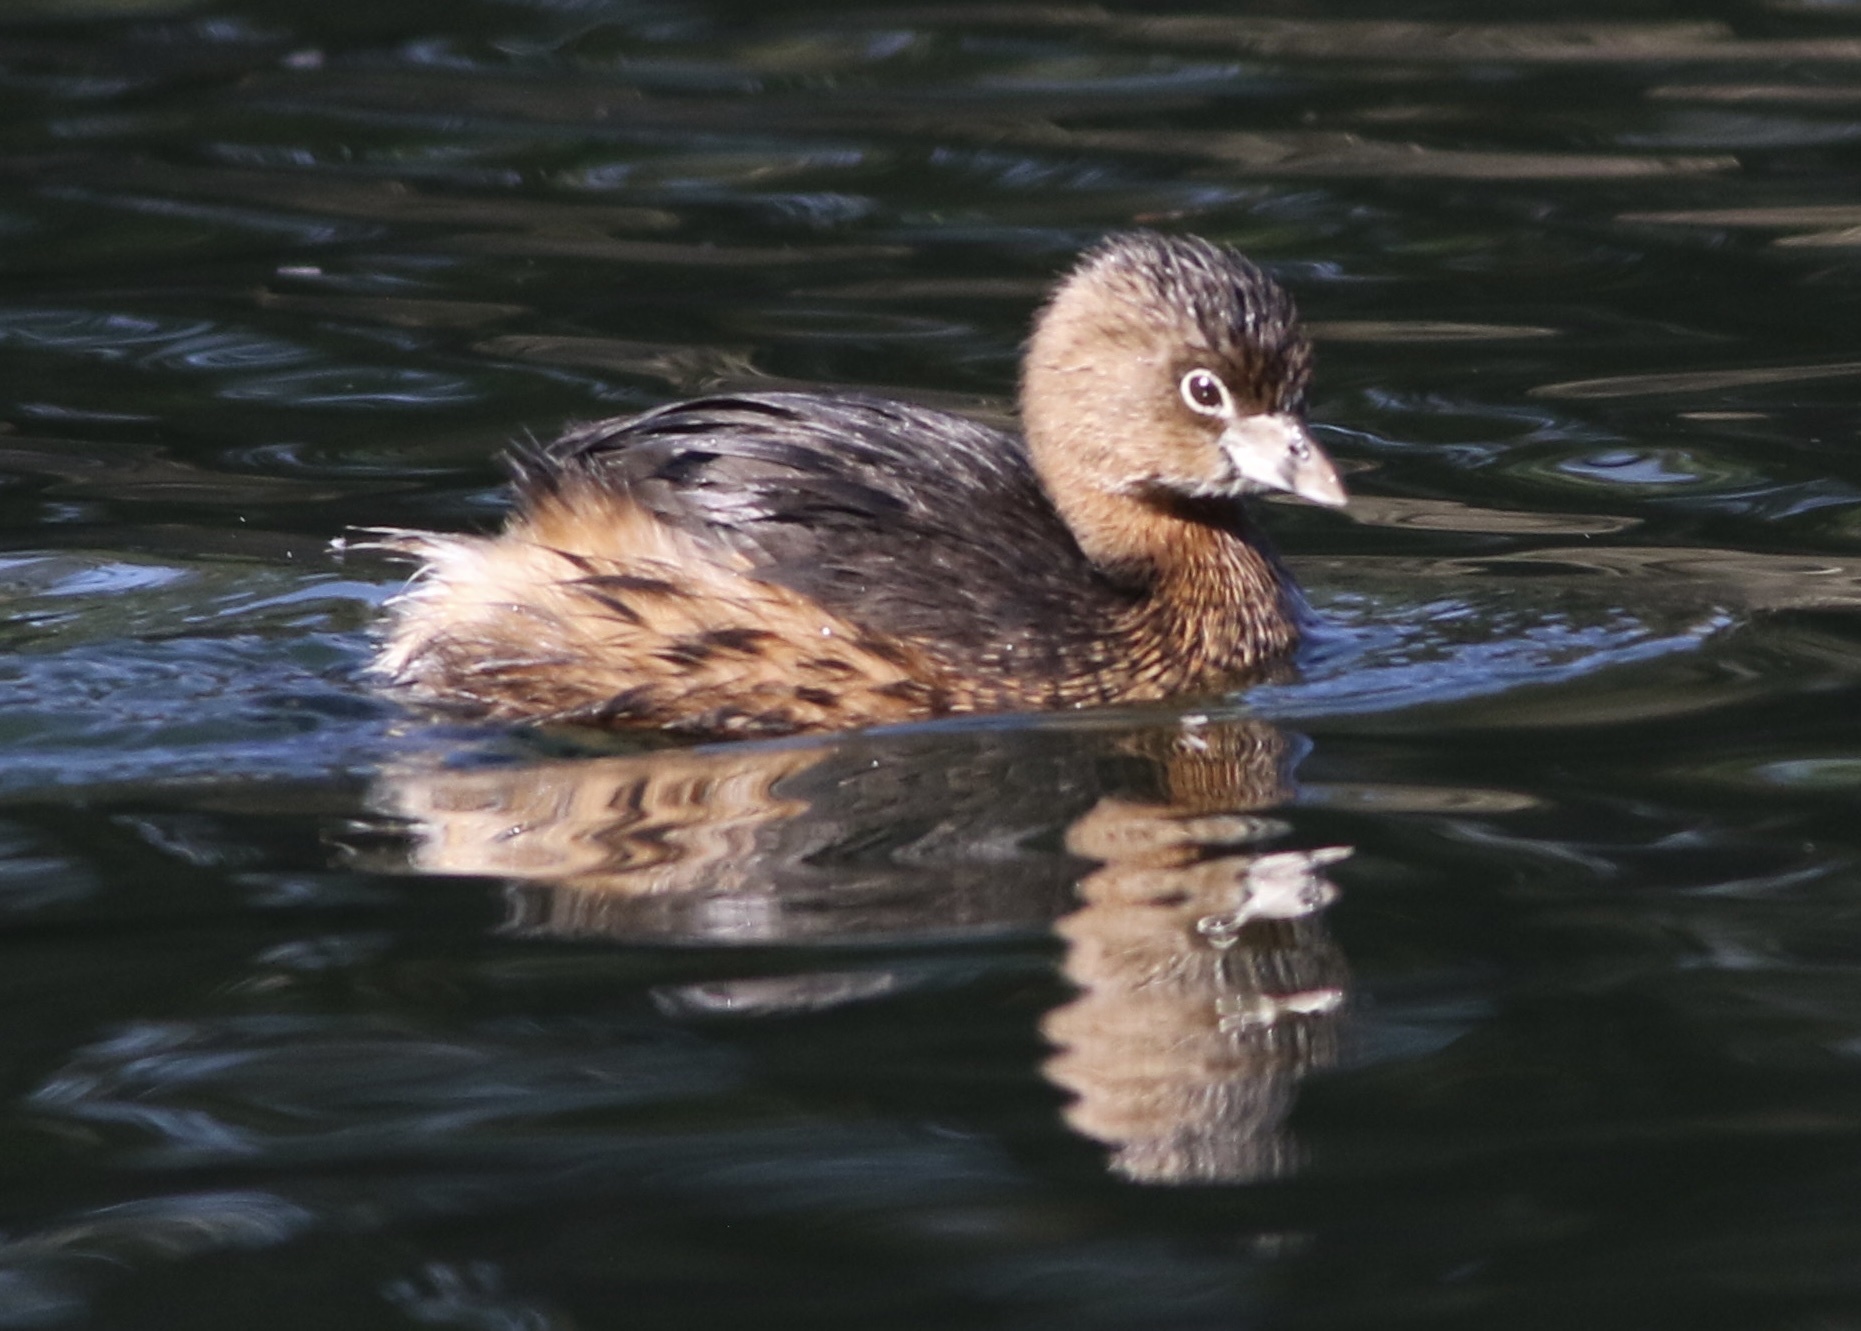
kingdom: Animalia
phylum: Chordata
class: Aves
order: Podicipediformes
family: Podicipedidae
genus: Podilymbus
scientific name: Podilymbus podiceps
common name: Pied-billed grebe
